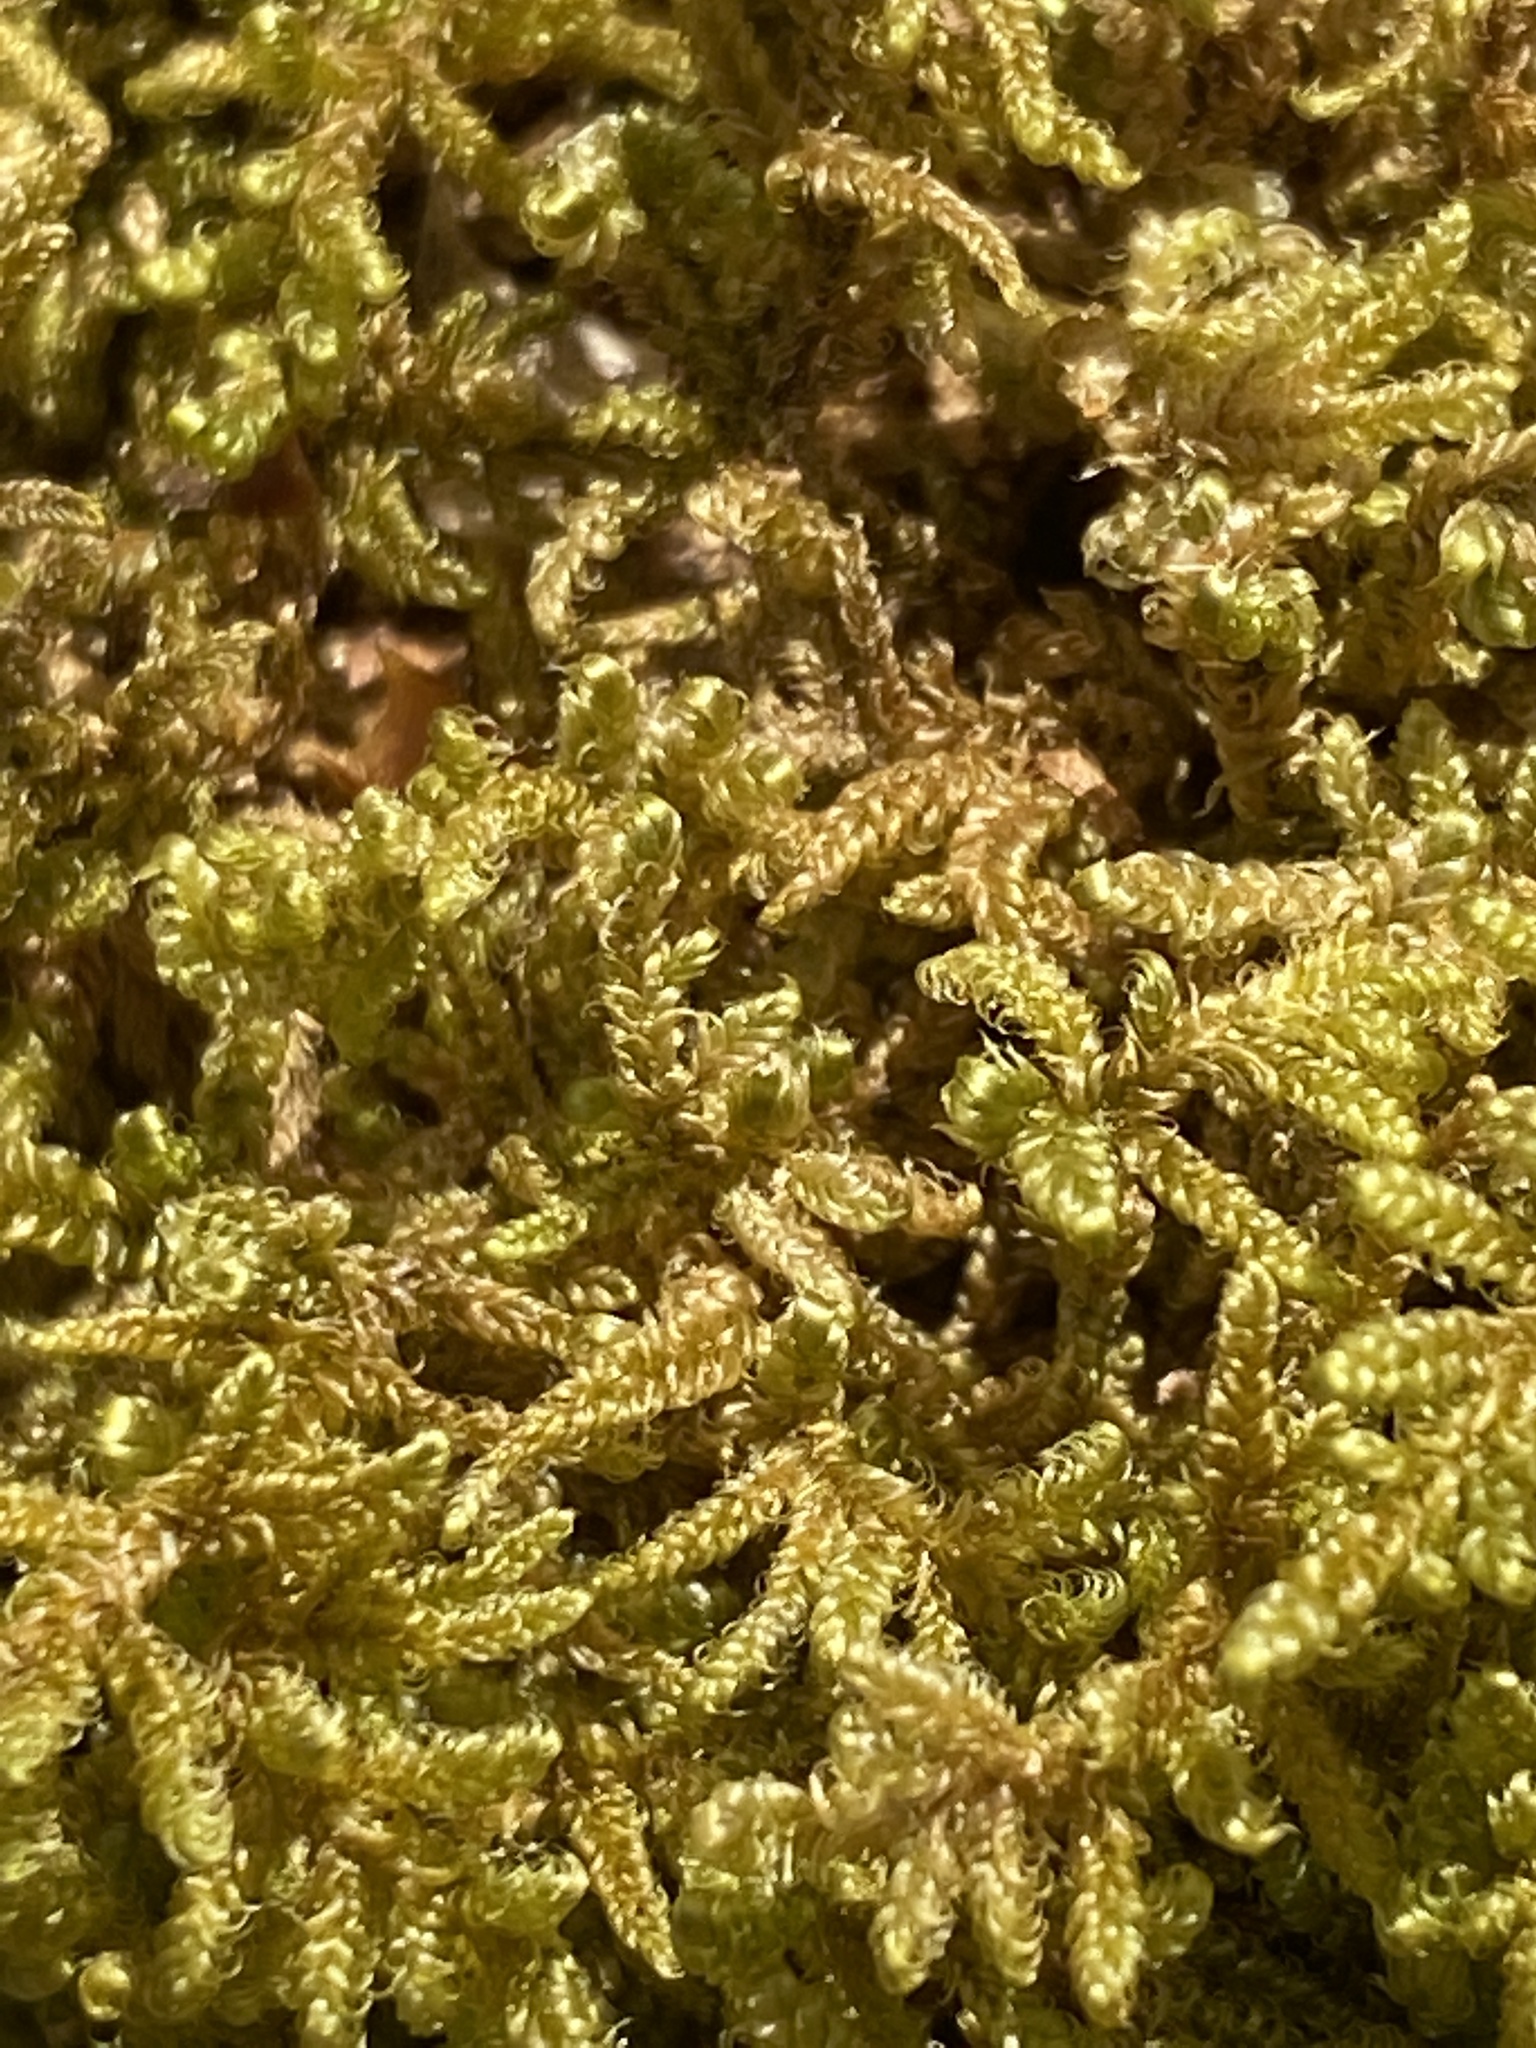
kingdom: Plantae
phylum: Bryophyta
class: Bryopsida
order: Hypnales
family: Callicladiaceae
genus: Callicladium
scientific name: Callicladium imponens
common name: Brocade moss
